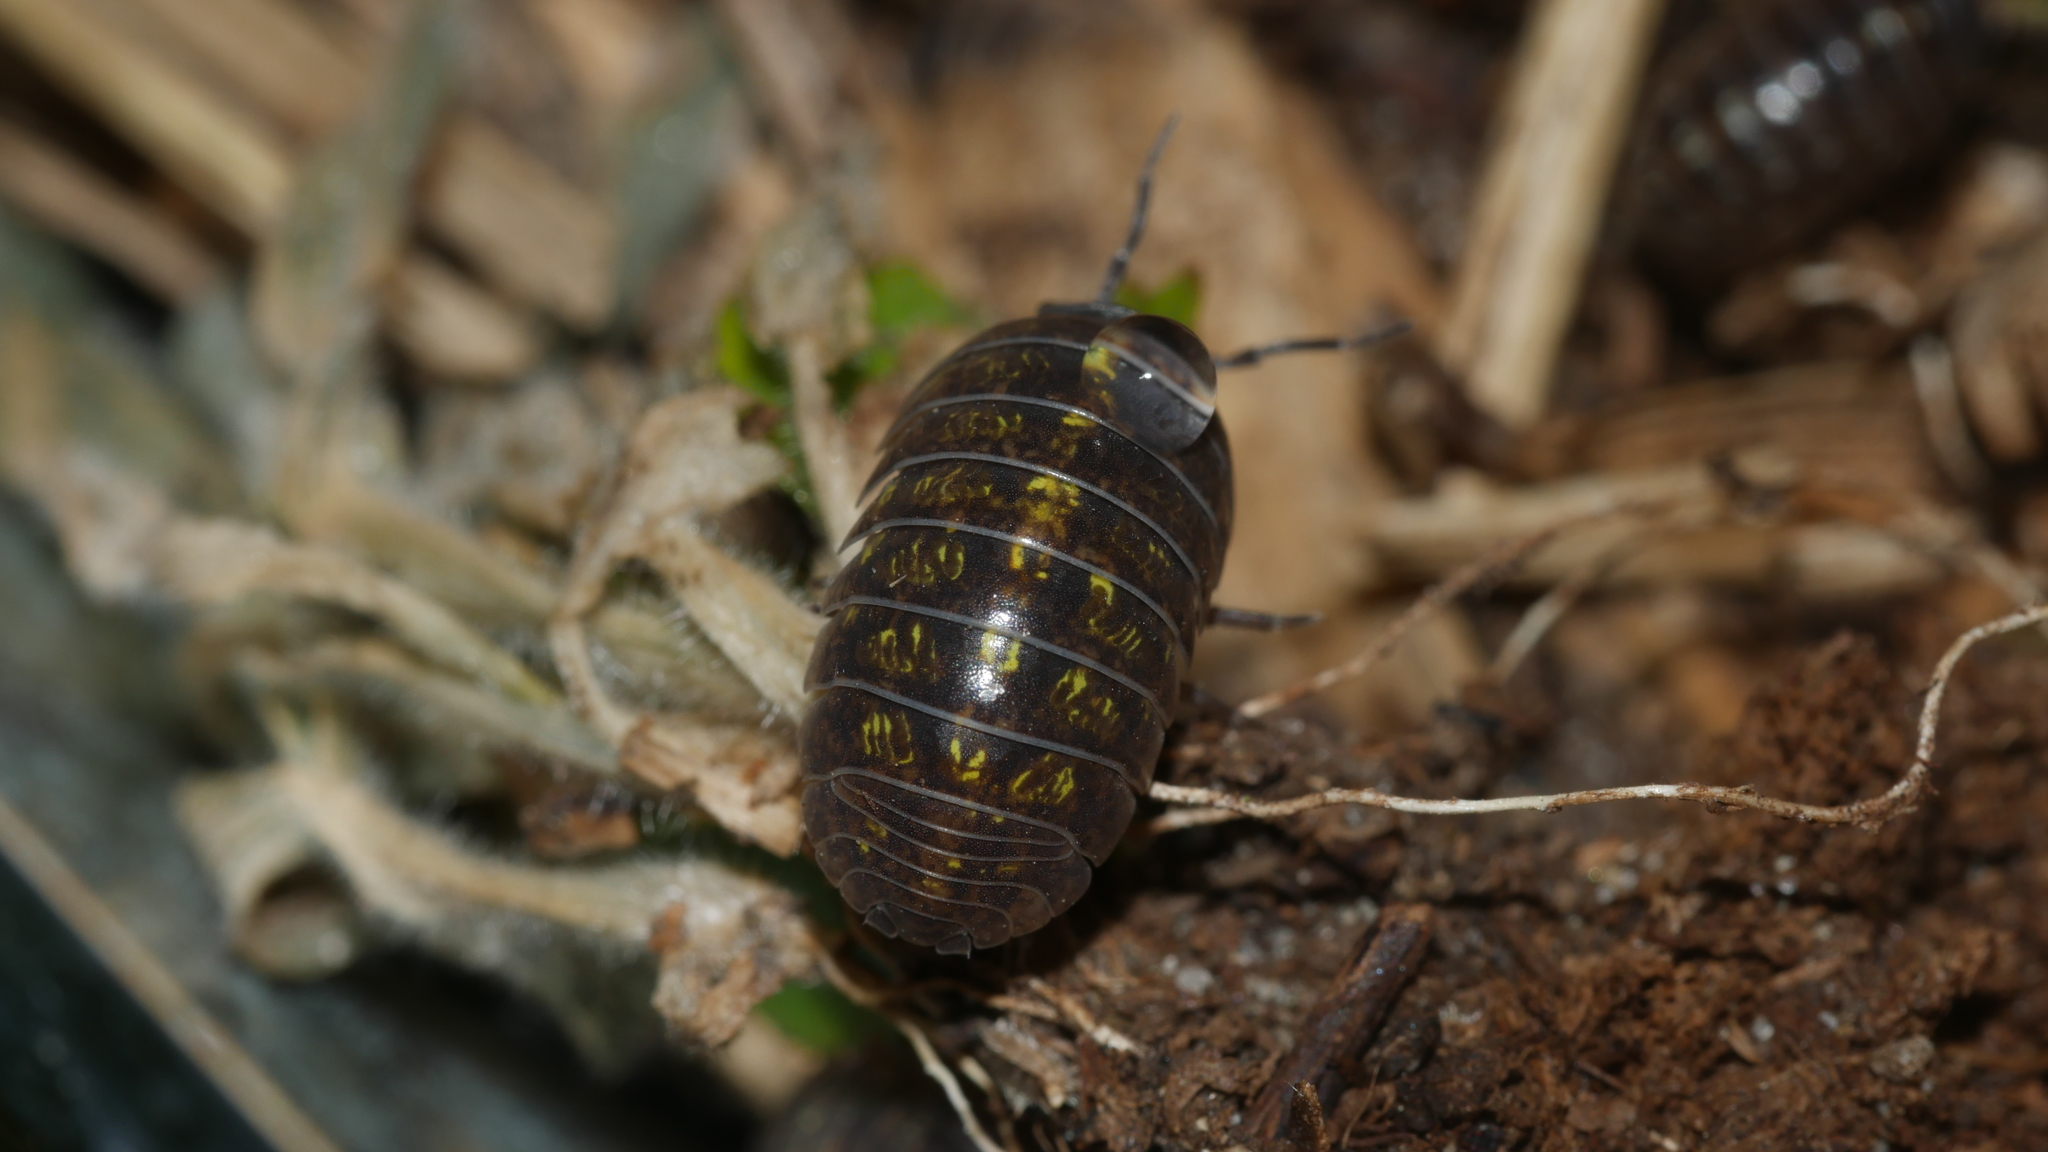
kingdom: Animalia
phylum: Arthropoda
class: Malacostraca
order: Isopoda
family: Armadillidiidae
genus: Armadillidium
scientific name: Armadillidium vulgare
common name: Common pill woodlouse
